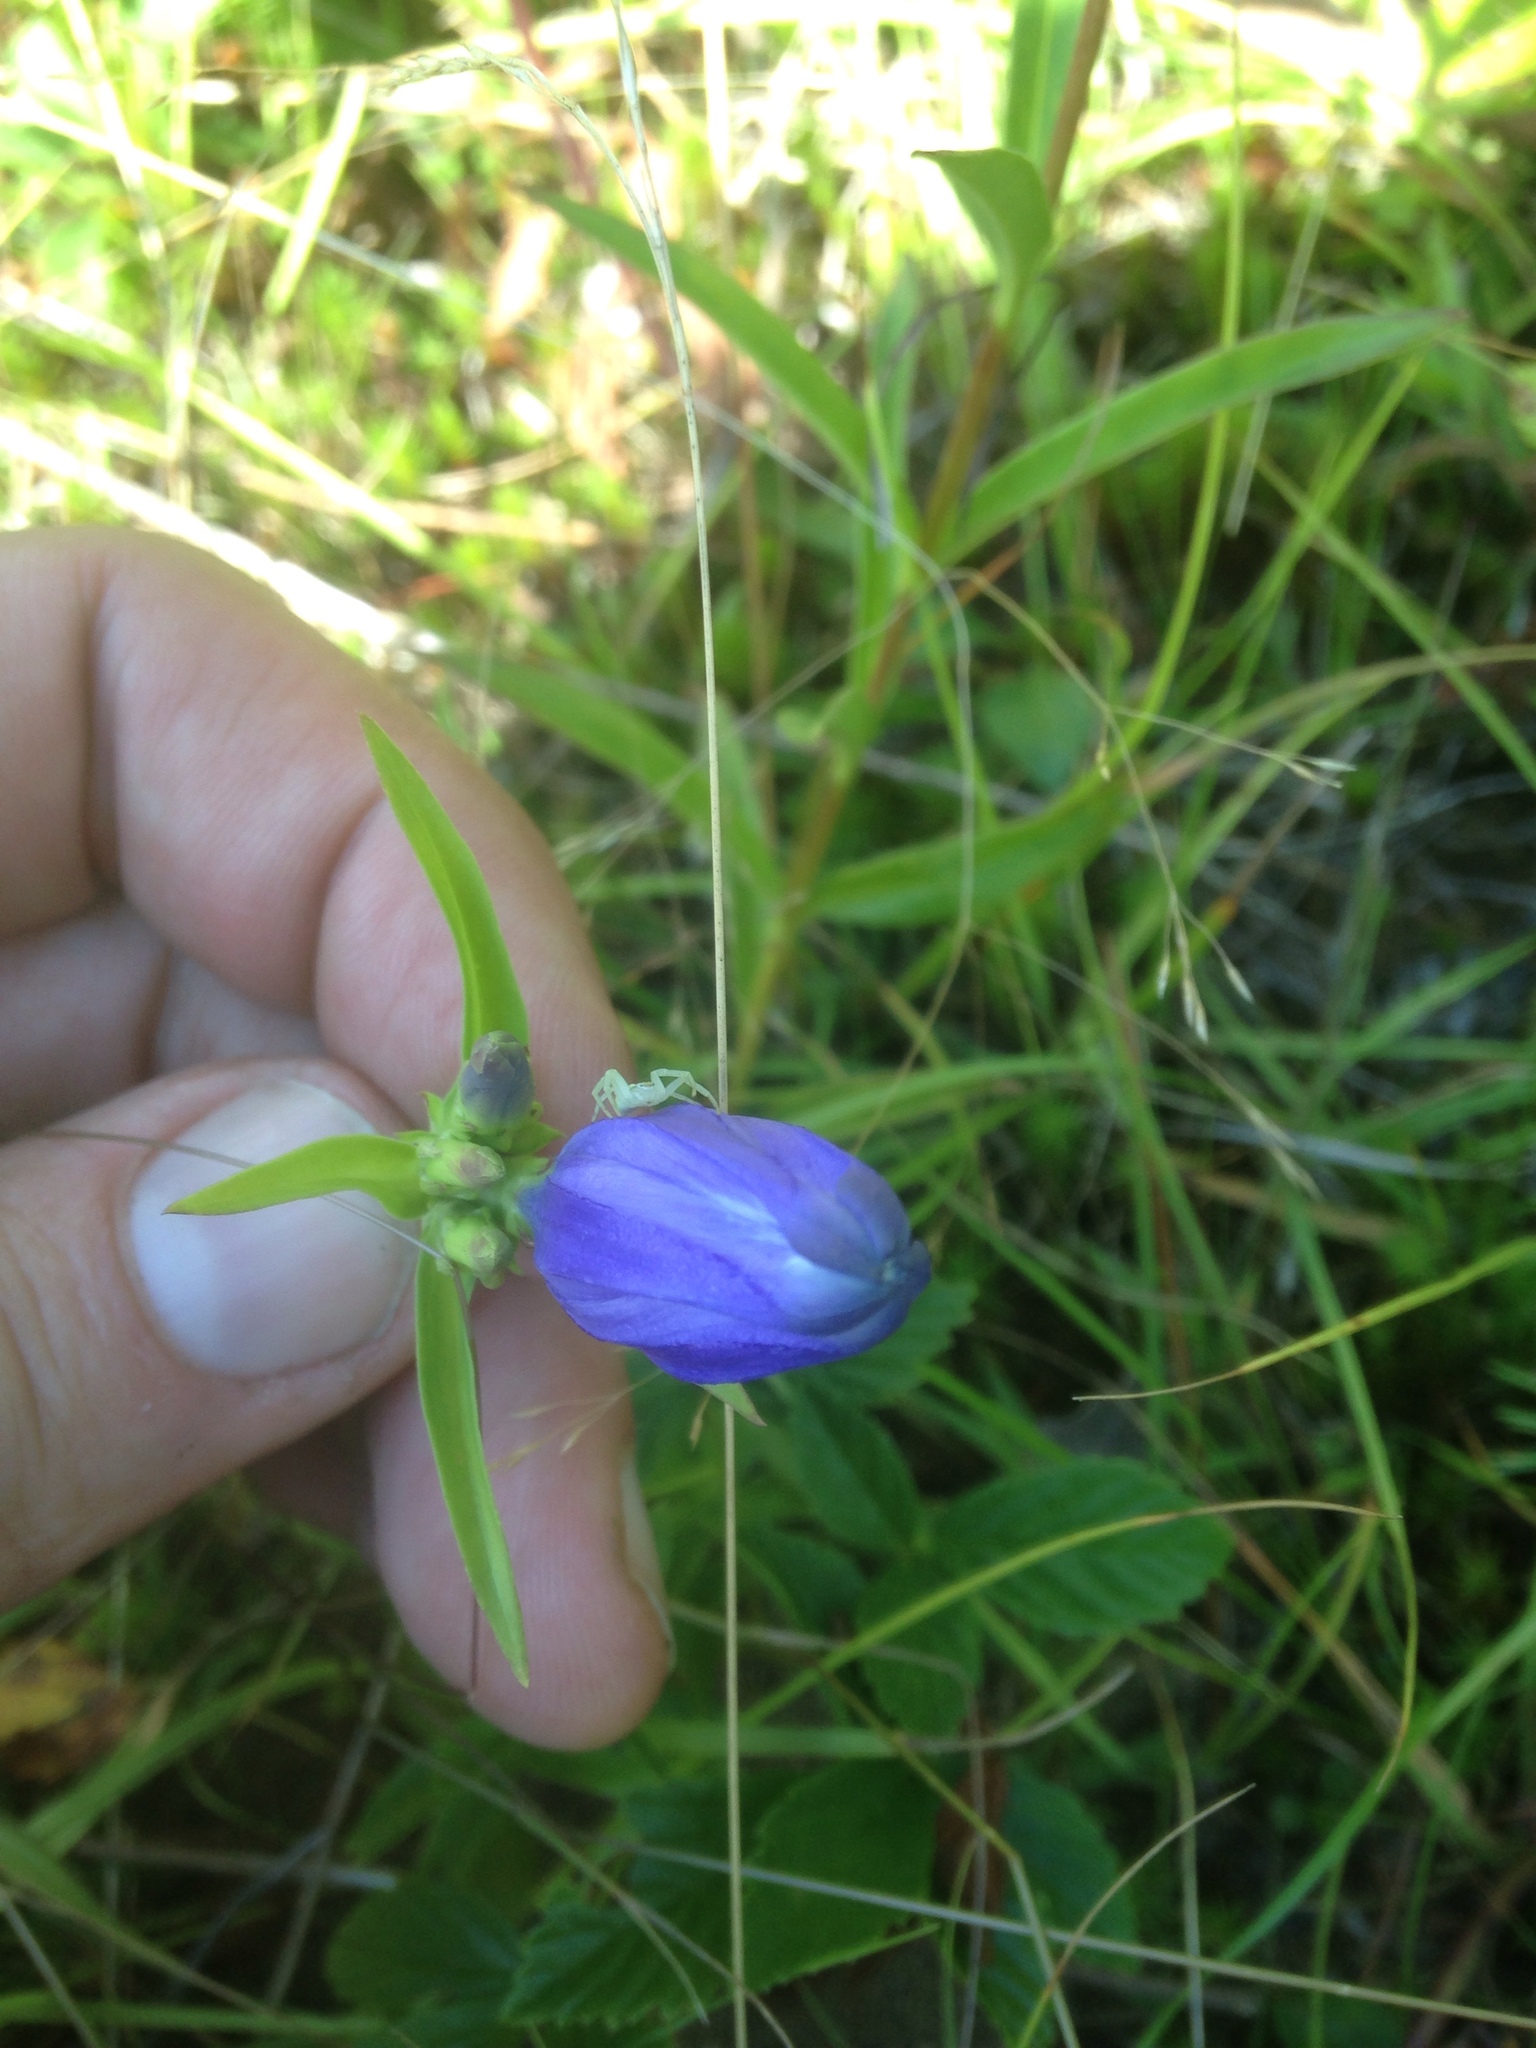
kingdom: Plantae
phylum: Tracheophyta
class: Magnoliopsida
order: Gentianales
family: Gentianaceae
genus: Gentiana
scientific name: Gentiana linearis
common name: Bastard gentian
